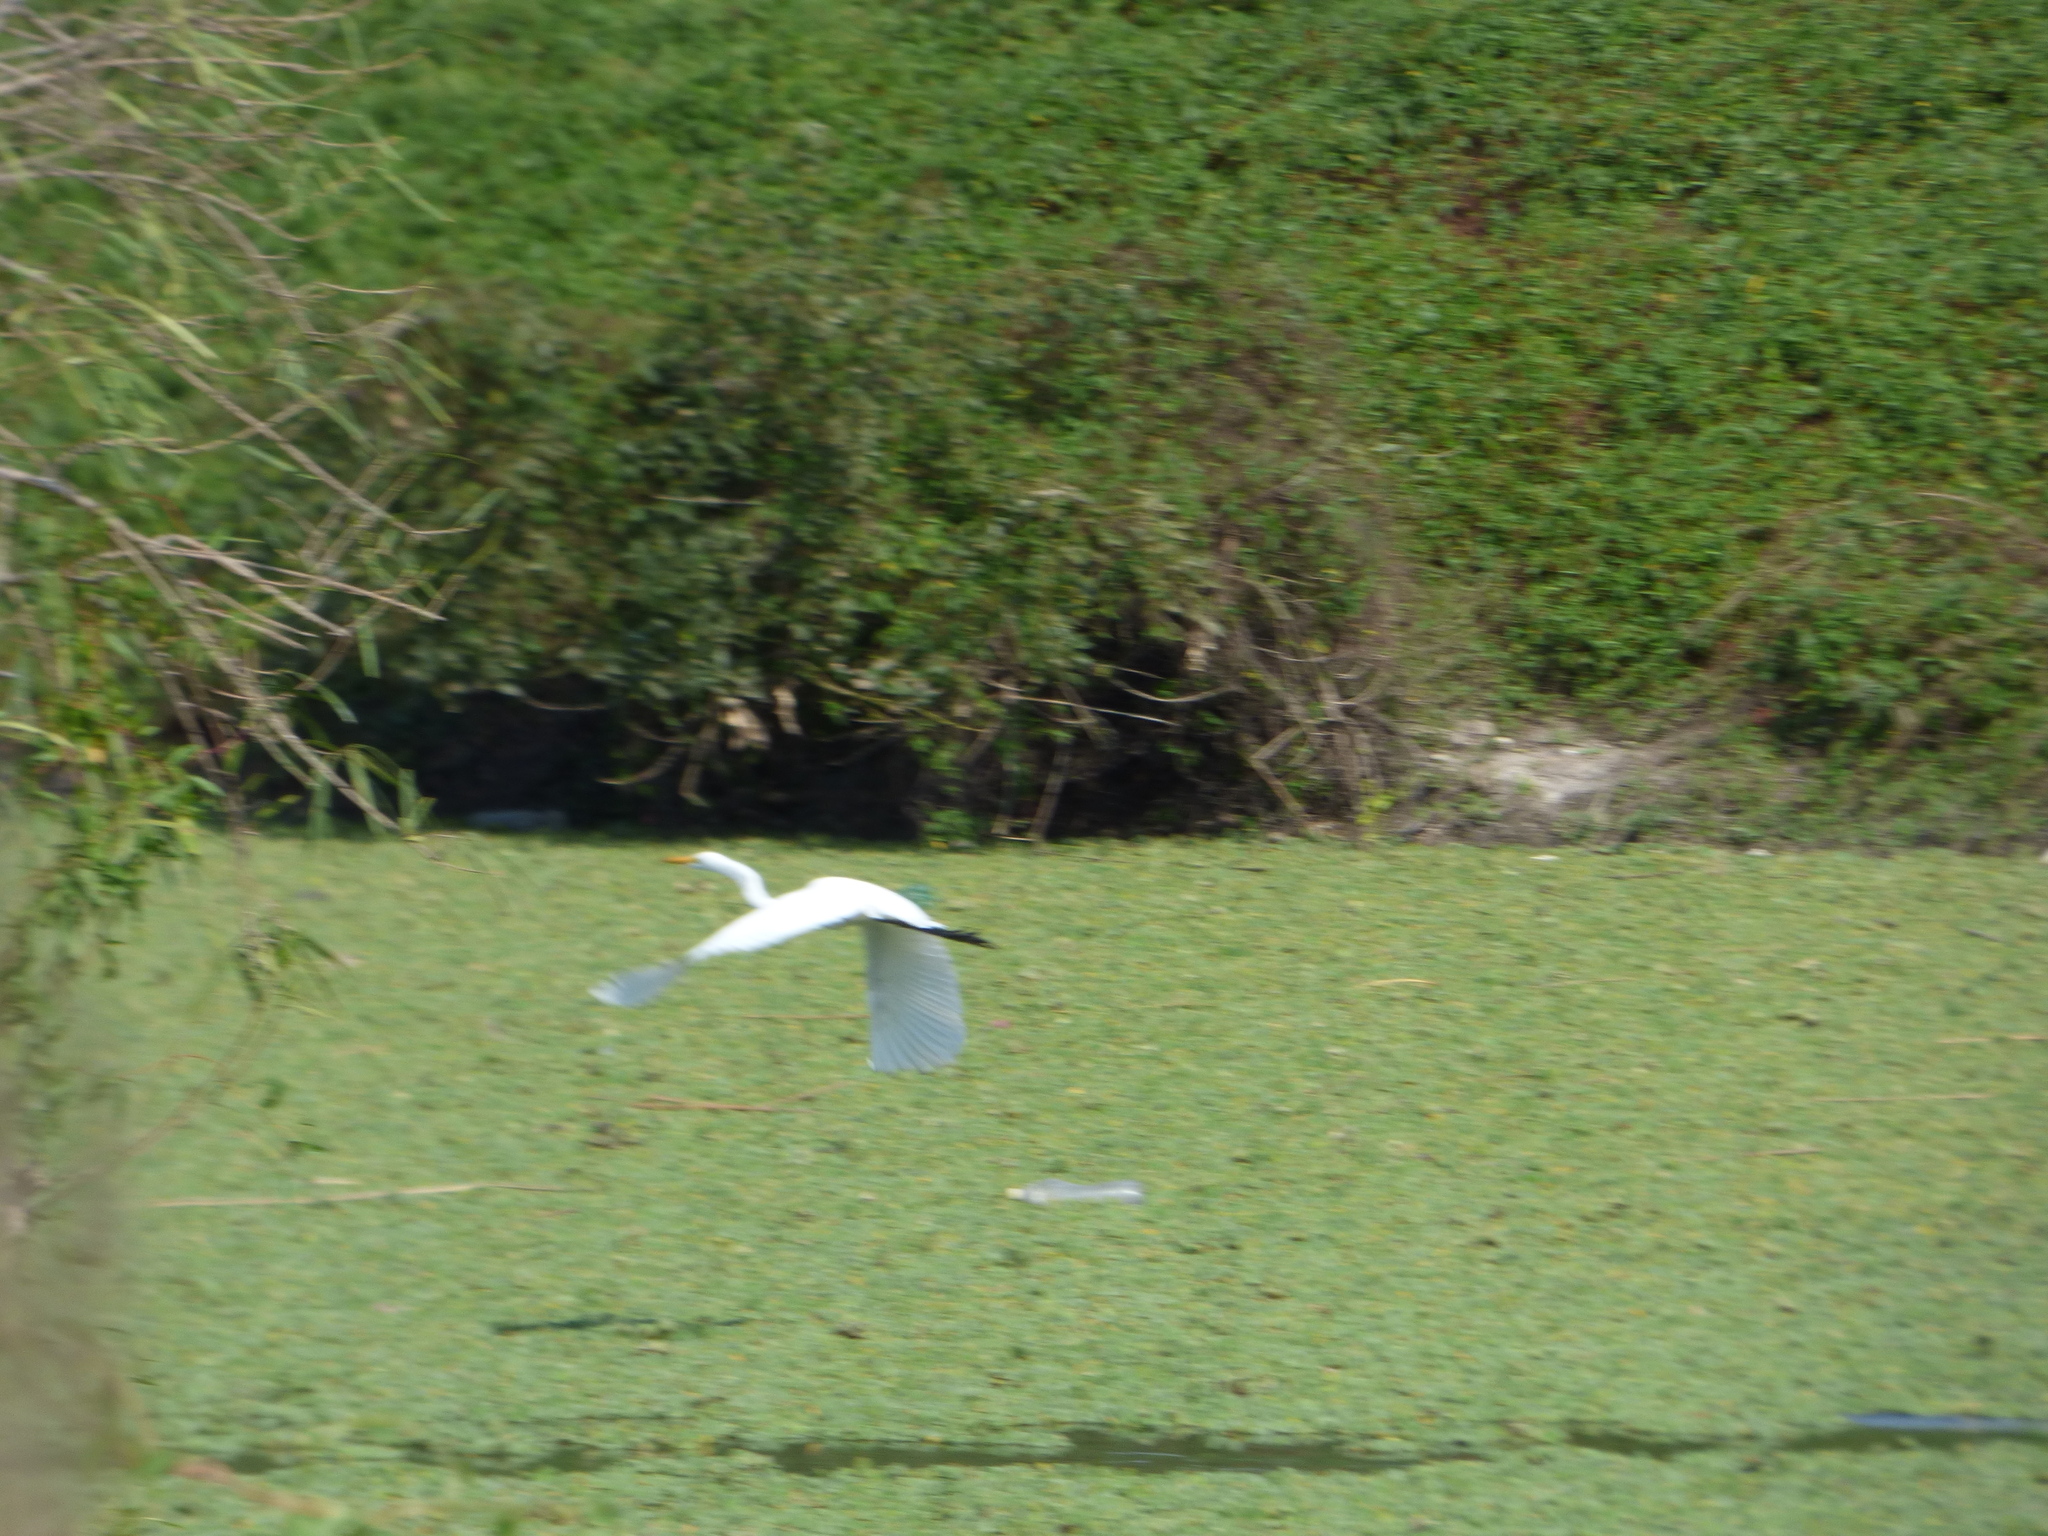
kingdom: Animalia
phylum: Chordata
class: Aves
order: Pelecaniformes
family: Ardeidae
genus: Ardea
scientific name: Ardea alba
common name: Great egret
